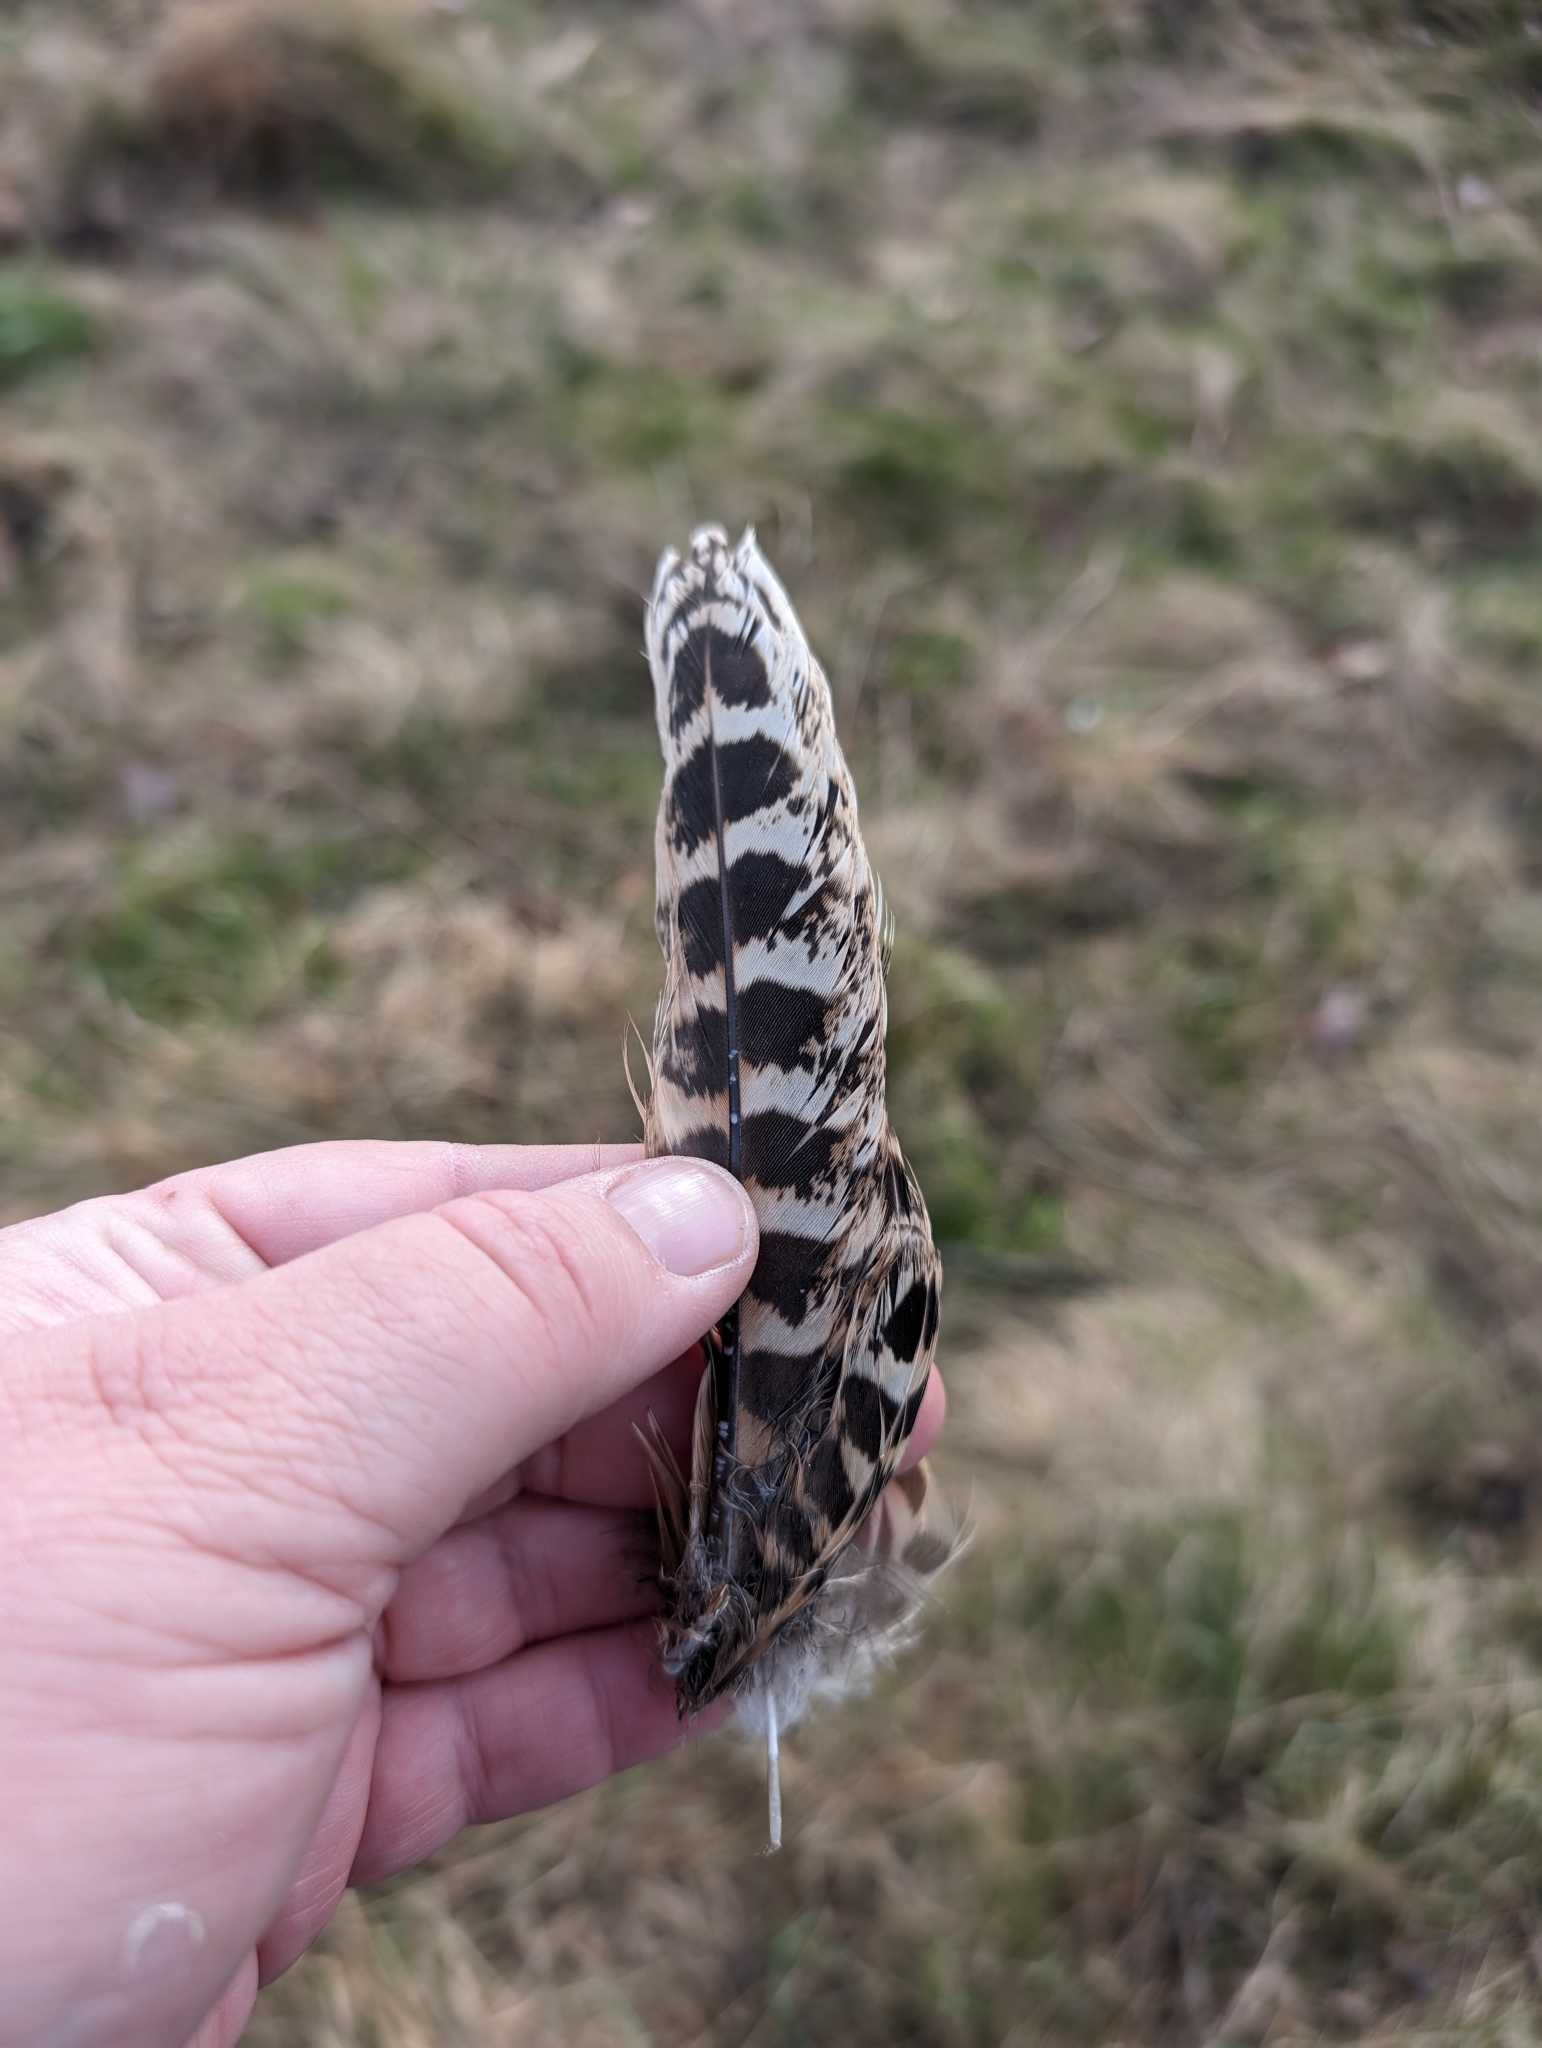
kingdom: Animalia
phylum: Chordata
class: Aves
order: Galliformes
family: Phasianidae
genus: Phasianus
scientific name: Phasianus colchicus
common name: Common pheasant
